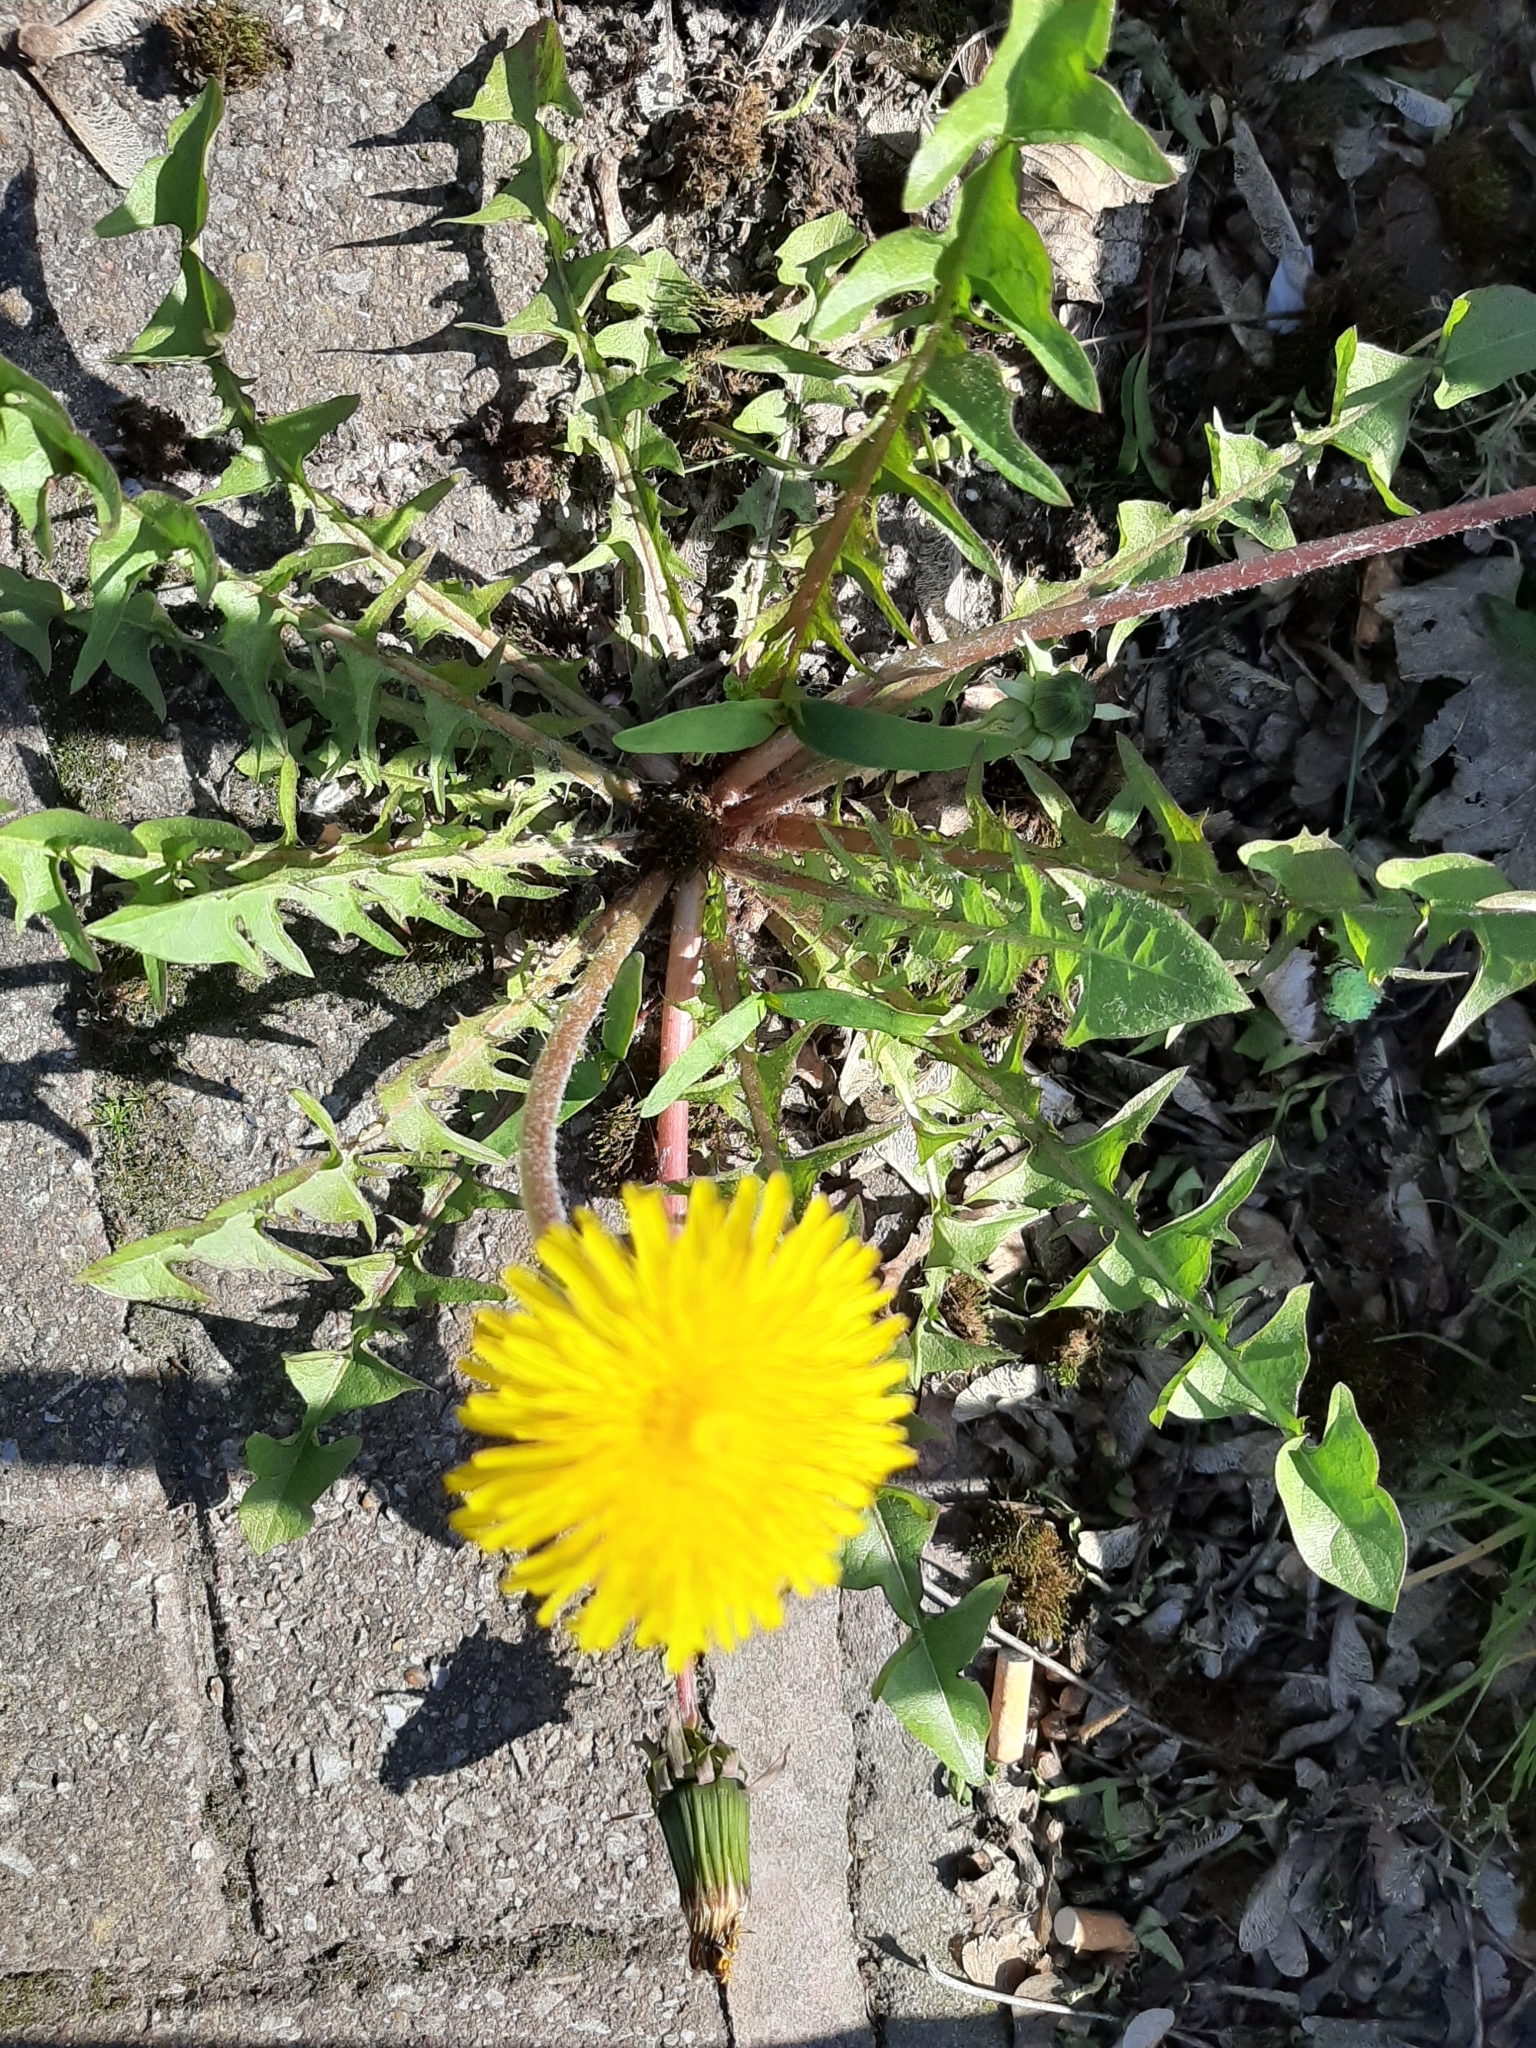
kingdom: Plantae
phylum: Tracheophyta
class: Magnoliopsida
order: Asterales
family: Asteraceae
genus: Taraxacum
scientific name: Taraxacum officinale
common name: Common dandelion
